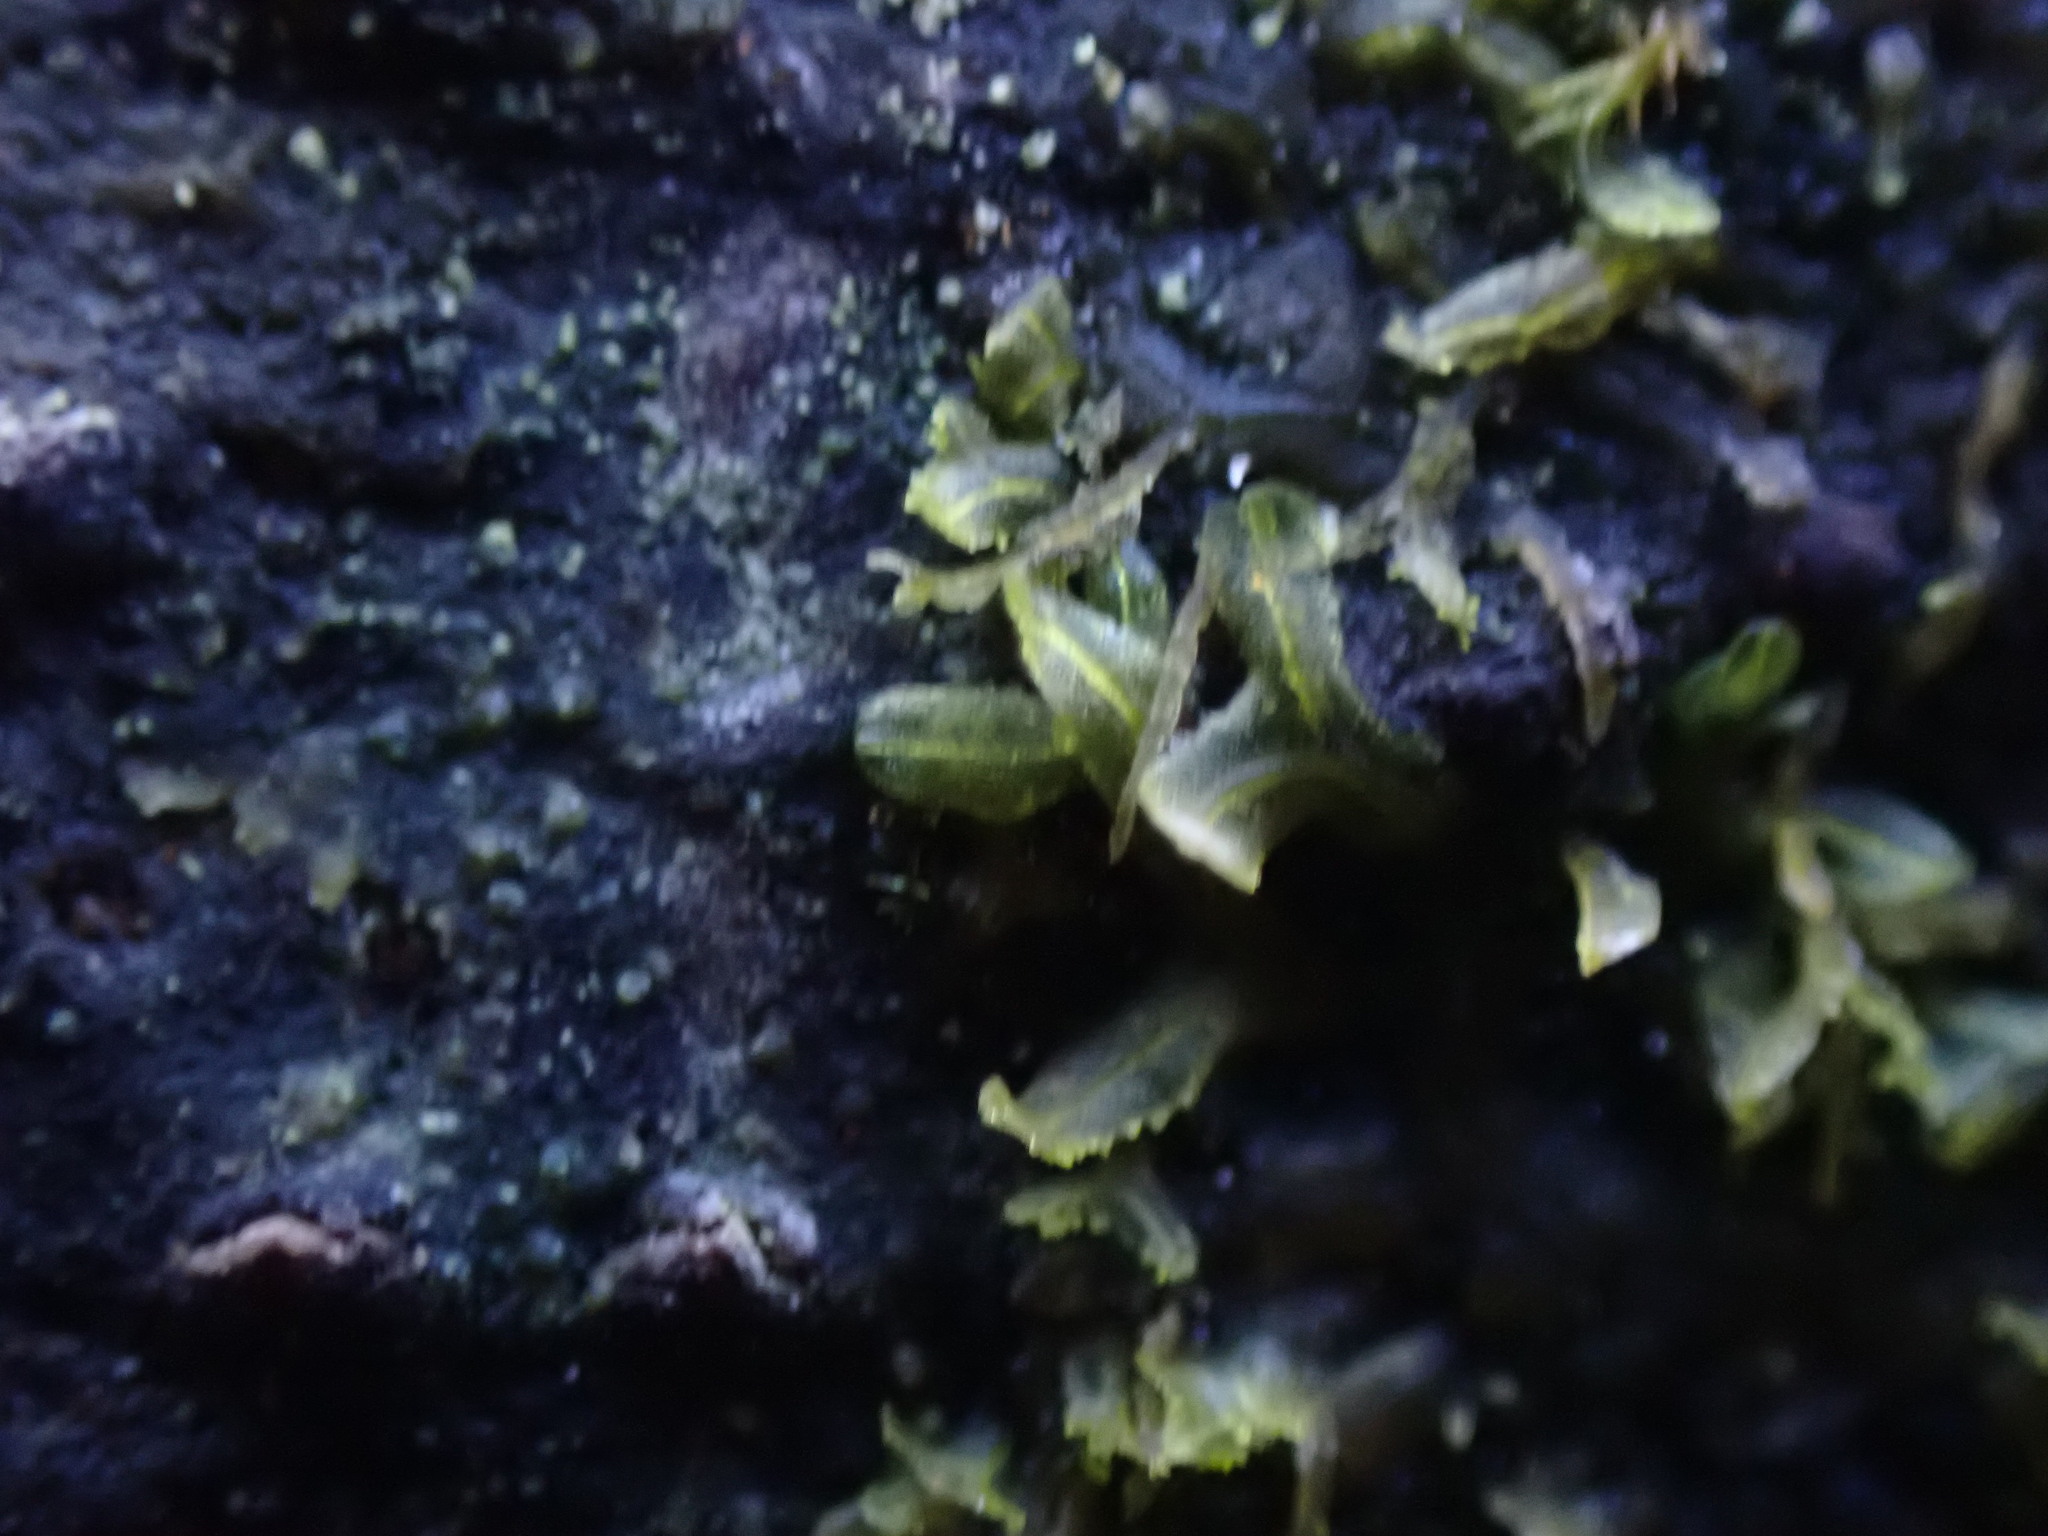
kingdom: Plantae
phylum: Marchantiophyta
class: Jungermanniopsida
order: Metzgeriales
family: Metzgeriaceae
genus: Metzgeria
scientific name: Metzgeria consanguinea
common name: Whiskered veilwort
